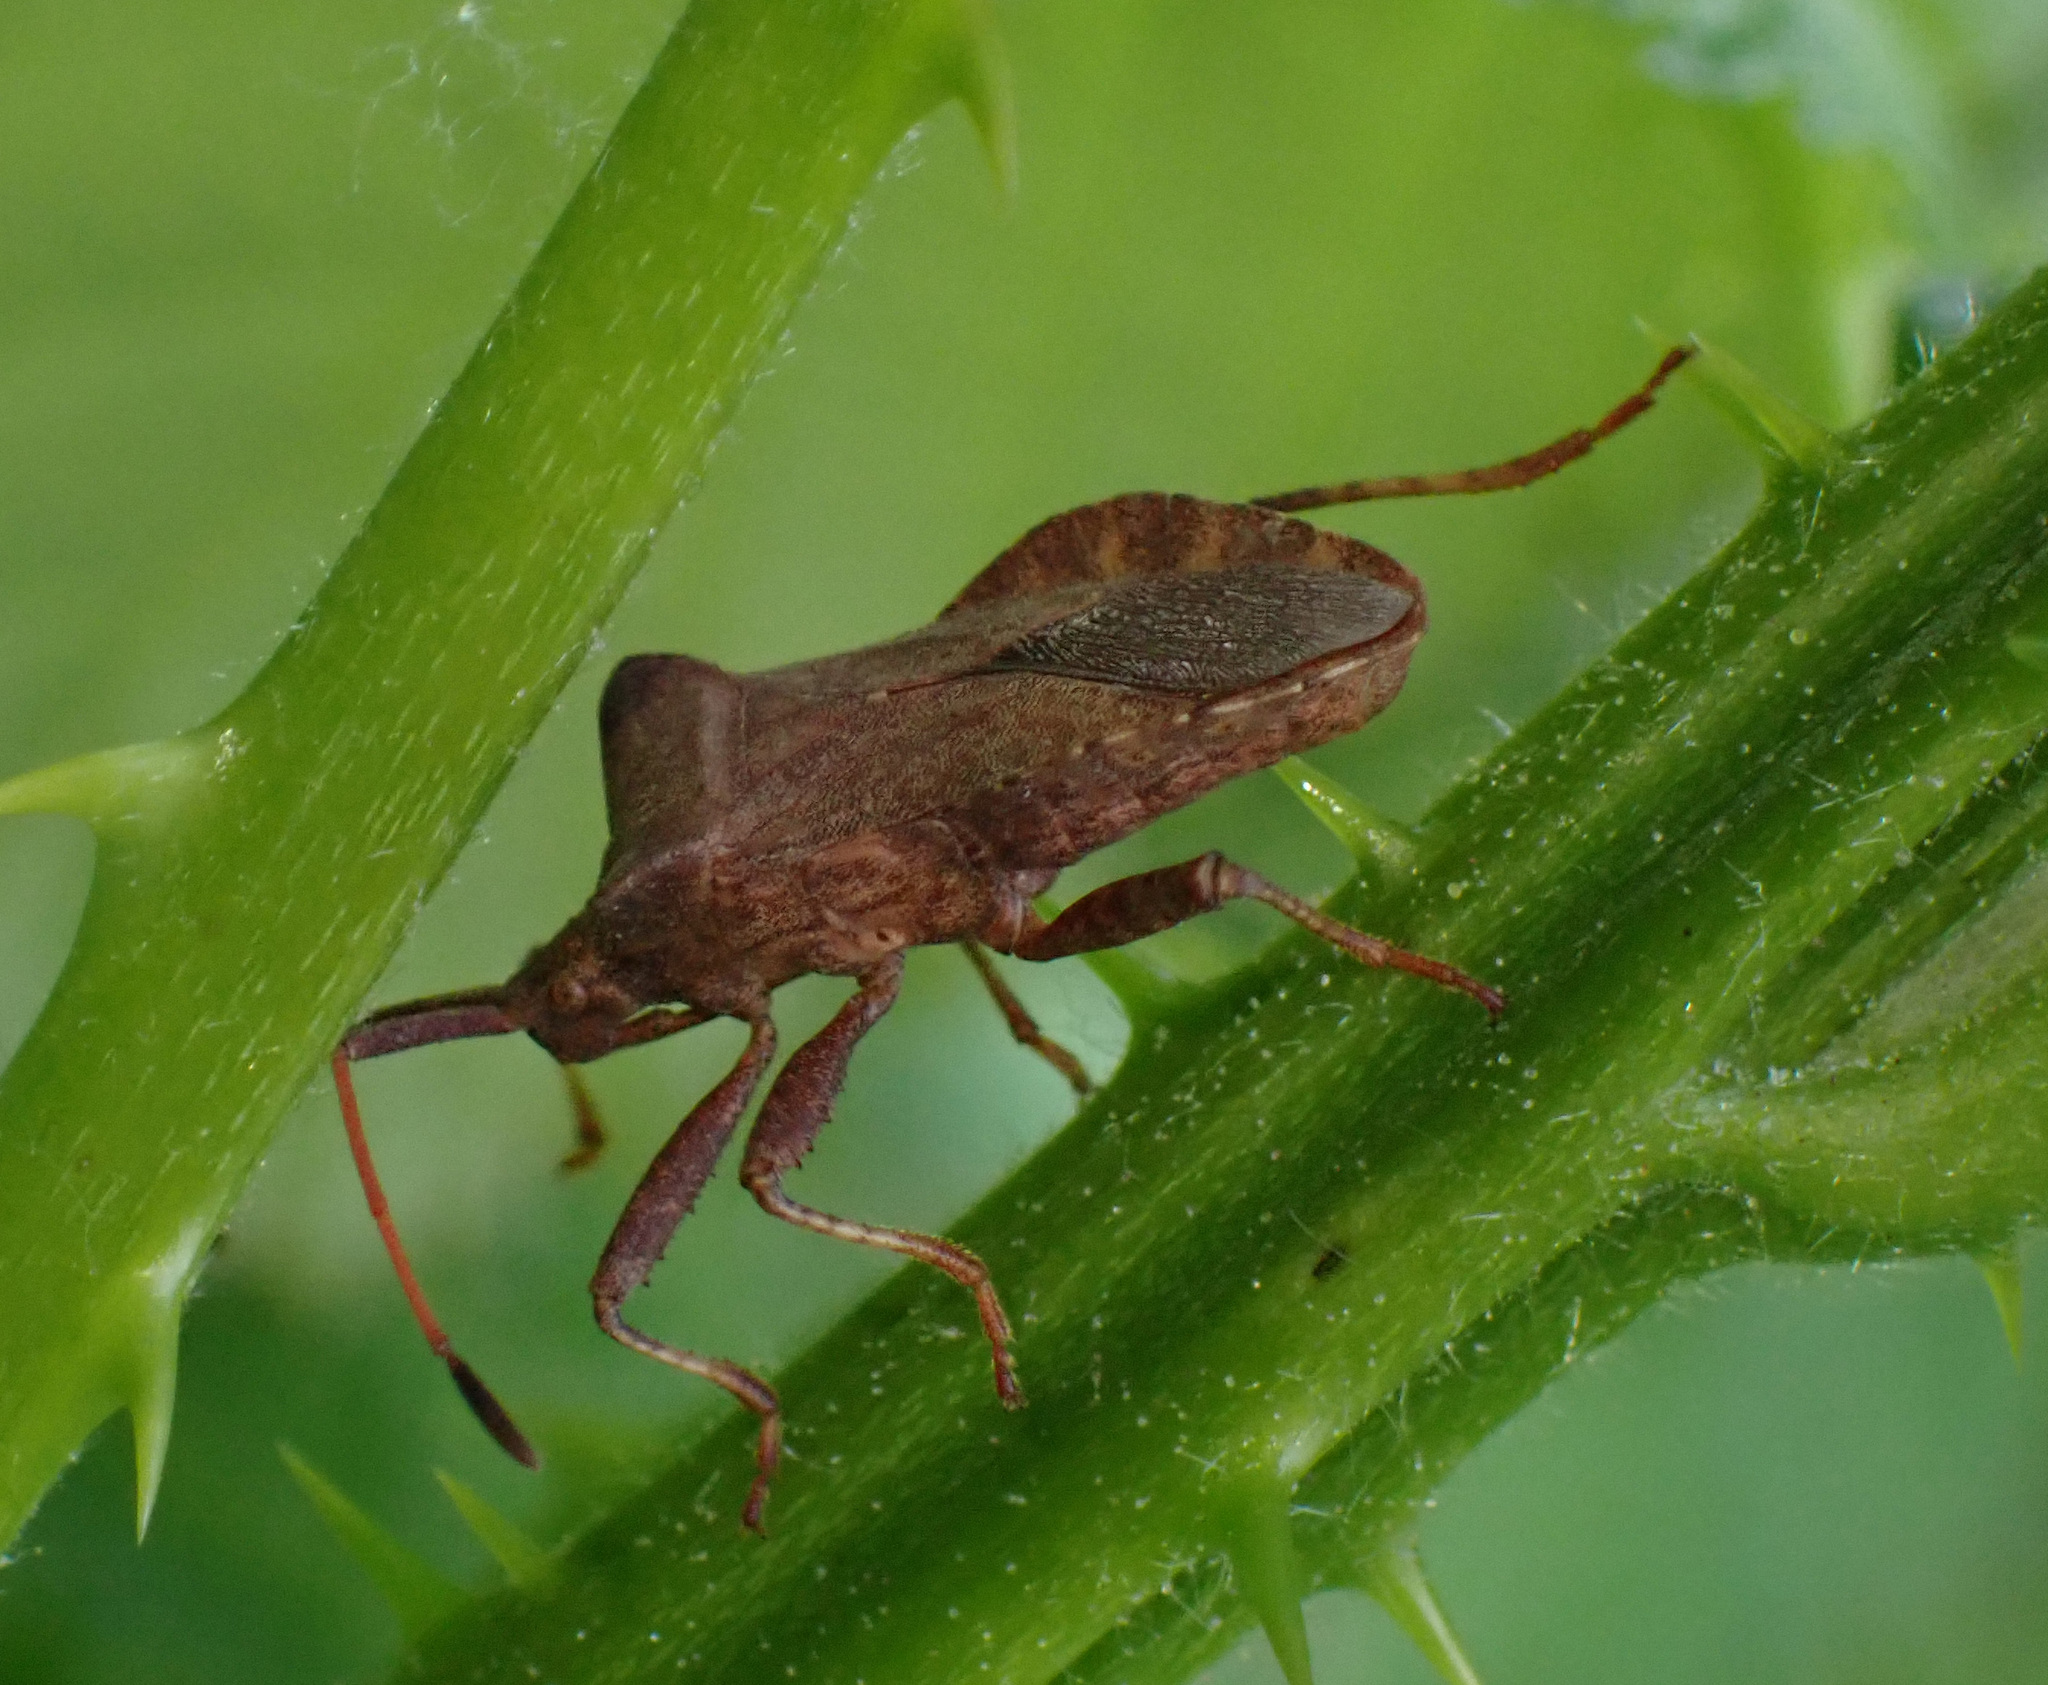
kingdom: Animalia
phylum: Arthropoda
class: Insecta
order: Hemiptera
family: Coreidae
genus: Coreus
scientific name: Coreus marginatus
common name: Dock bug
